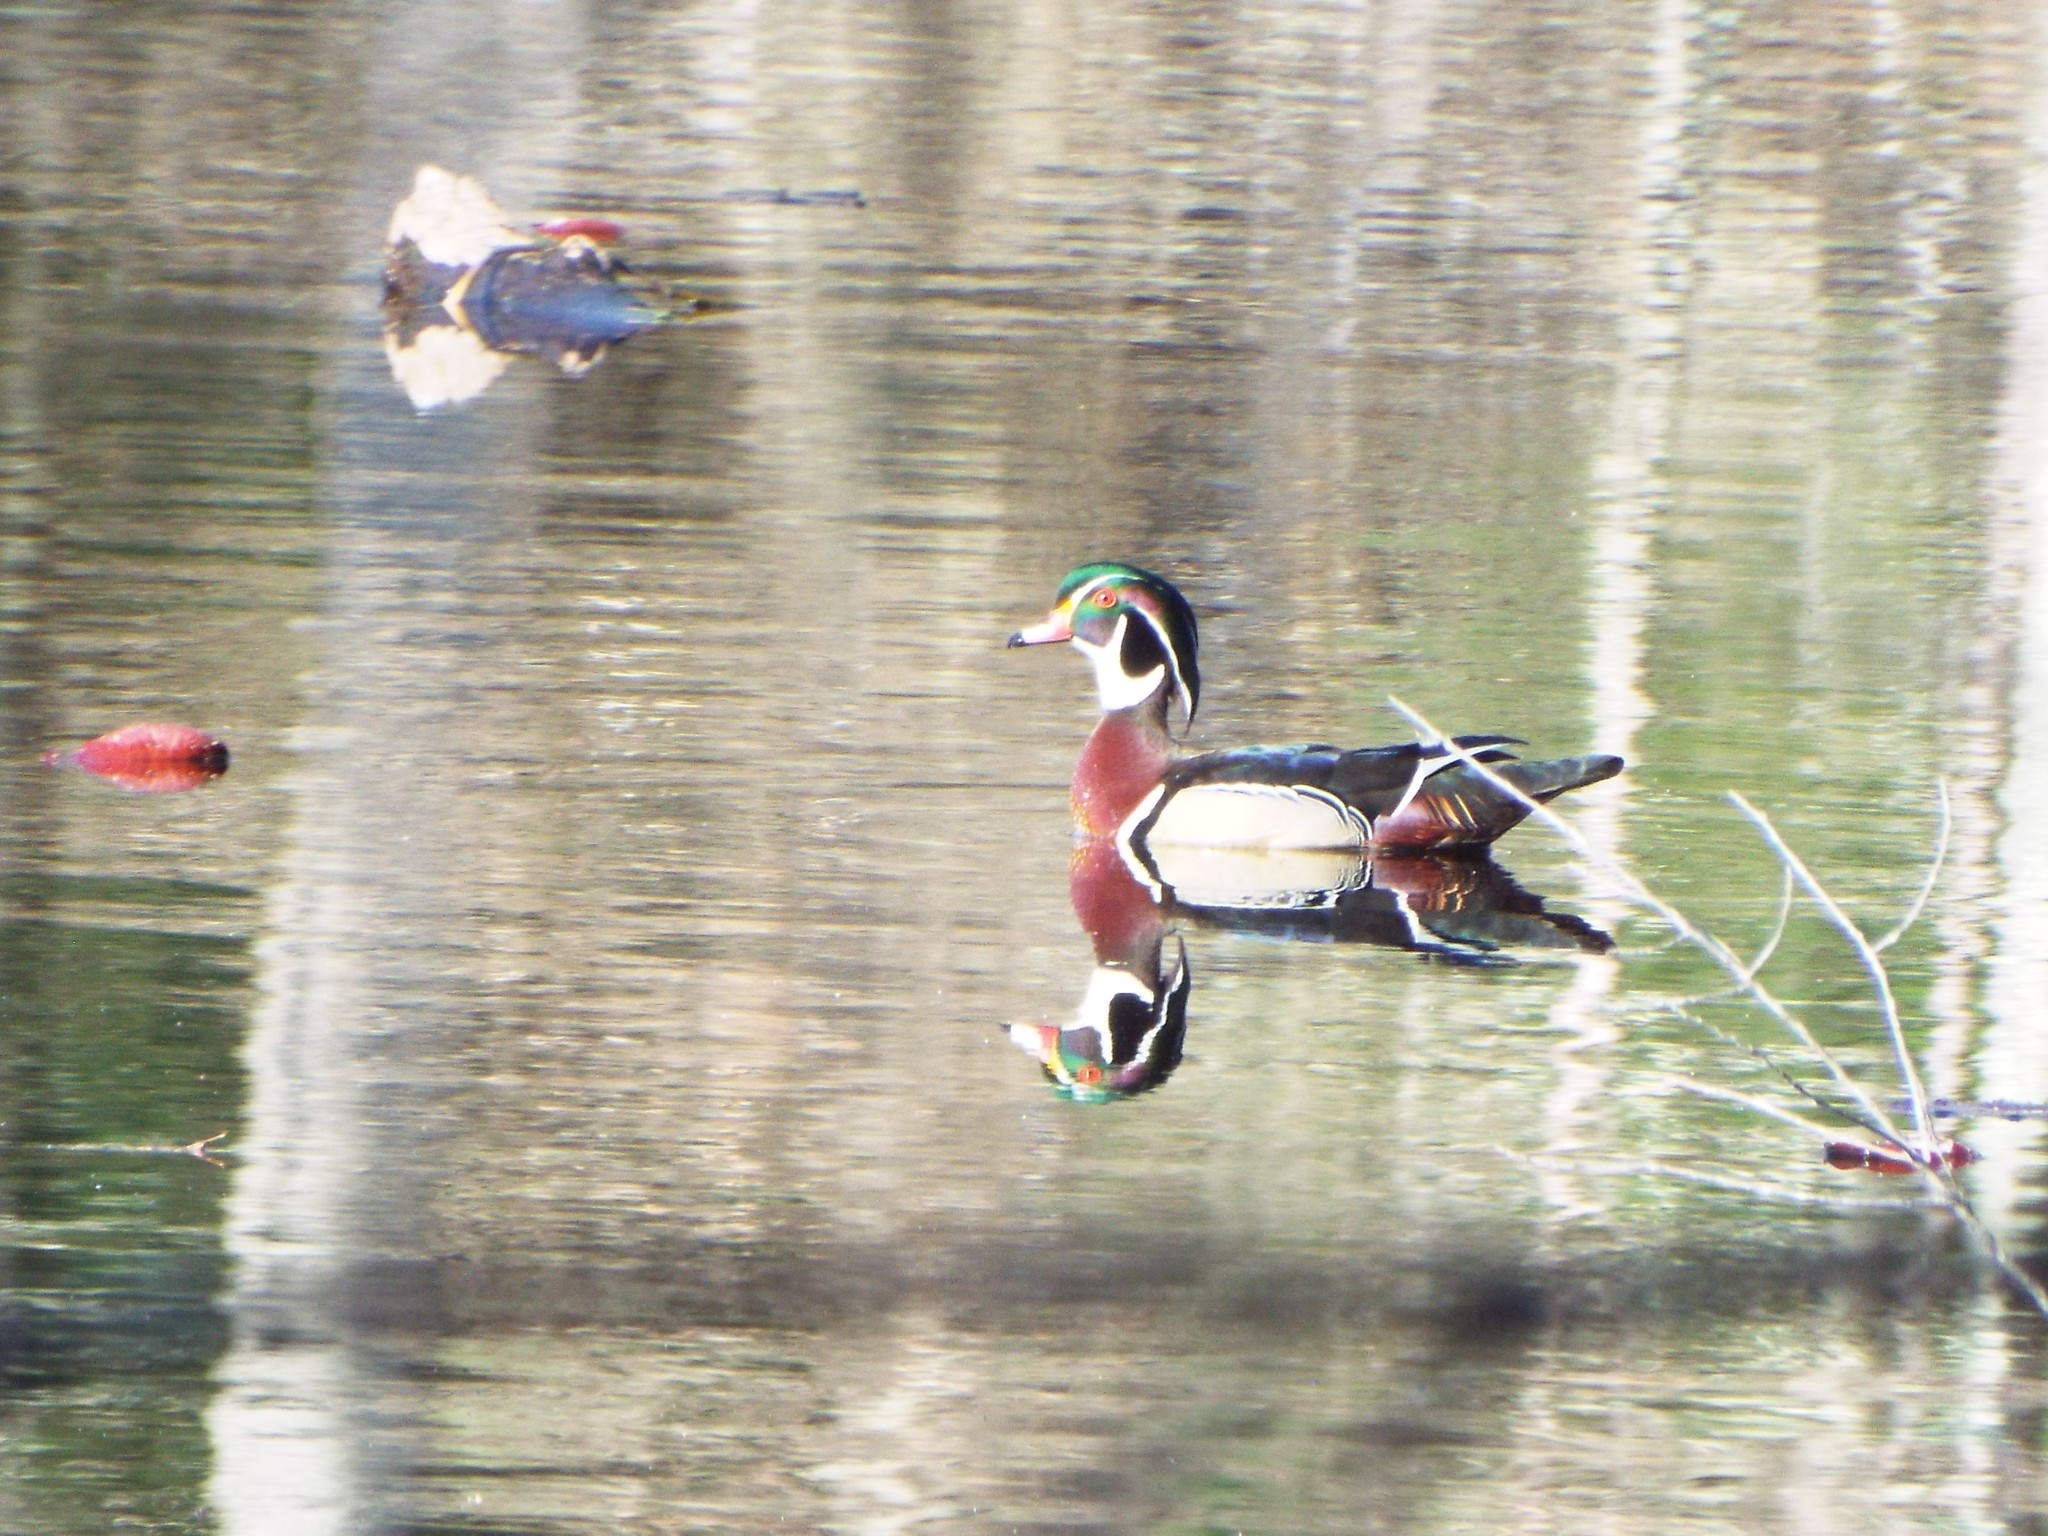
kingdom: Animalia
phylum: Chordata
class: Aves
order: Anseriformes
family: Anatidae
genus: Aix
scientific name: Aix sponsa
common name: Wood duck
